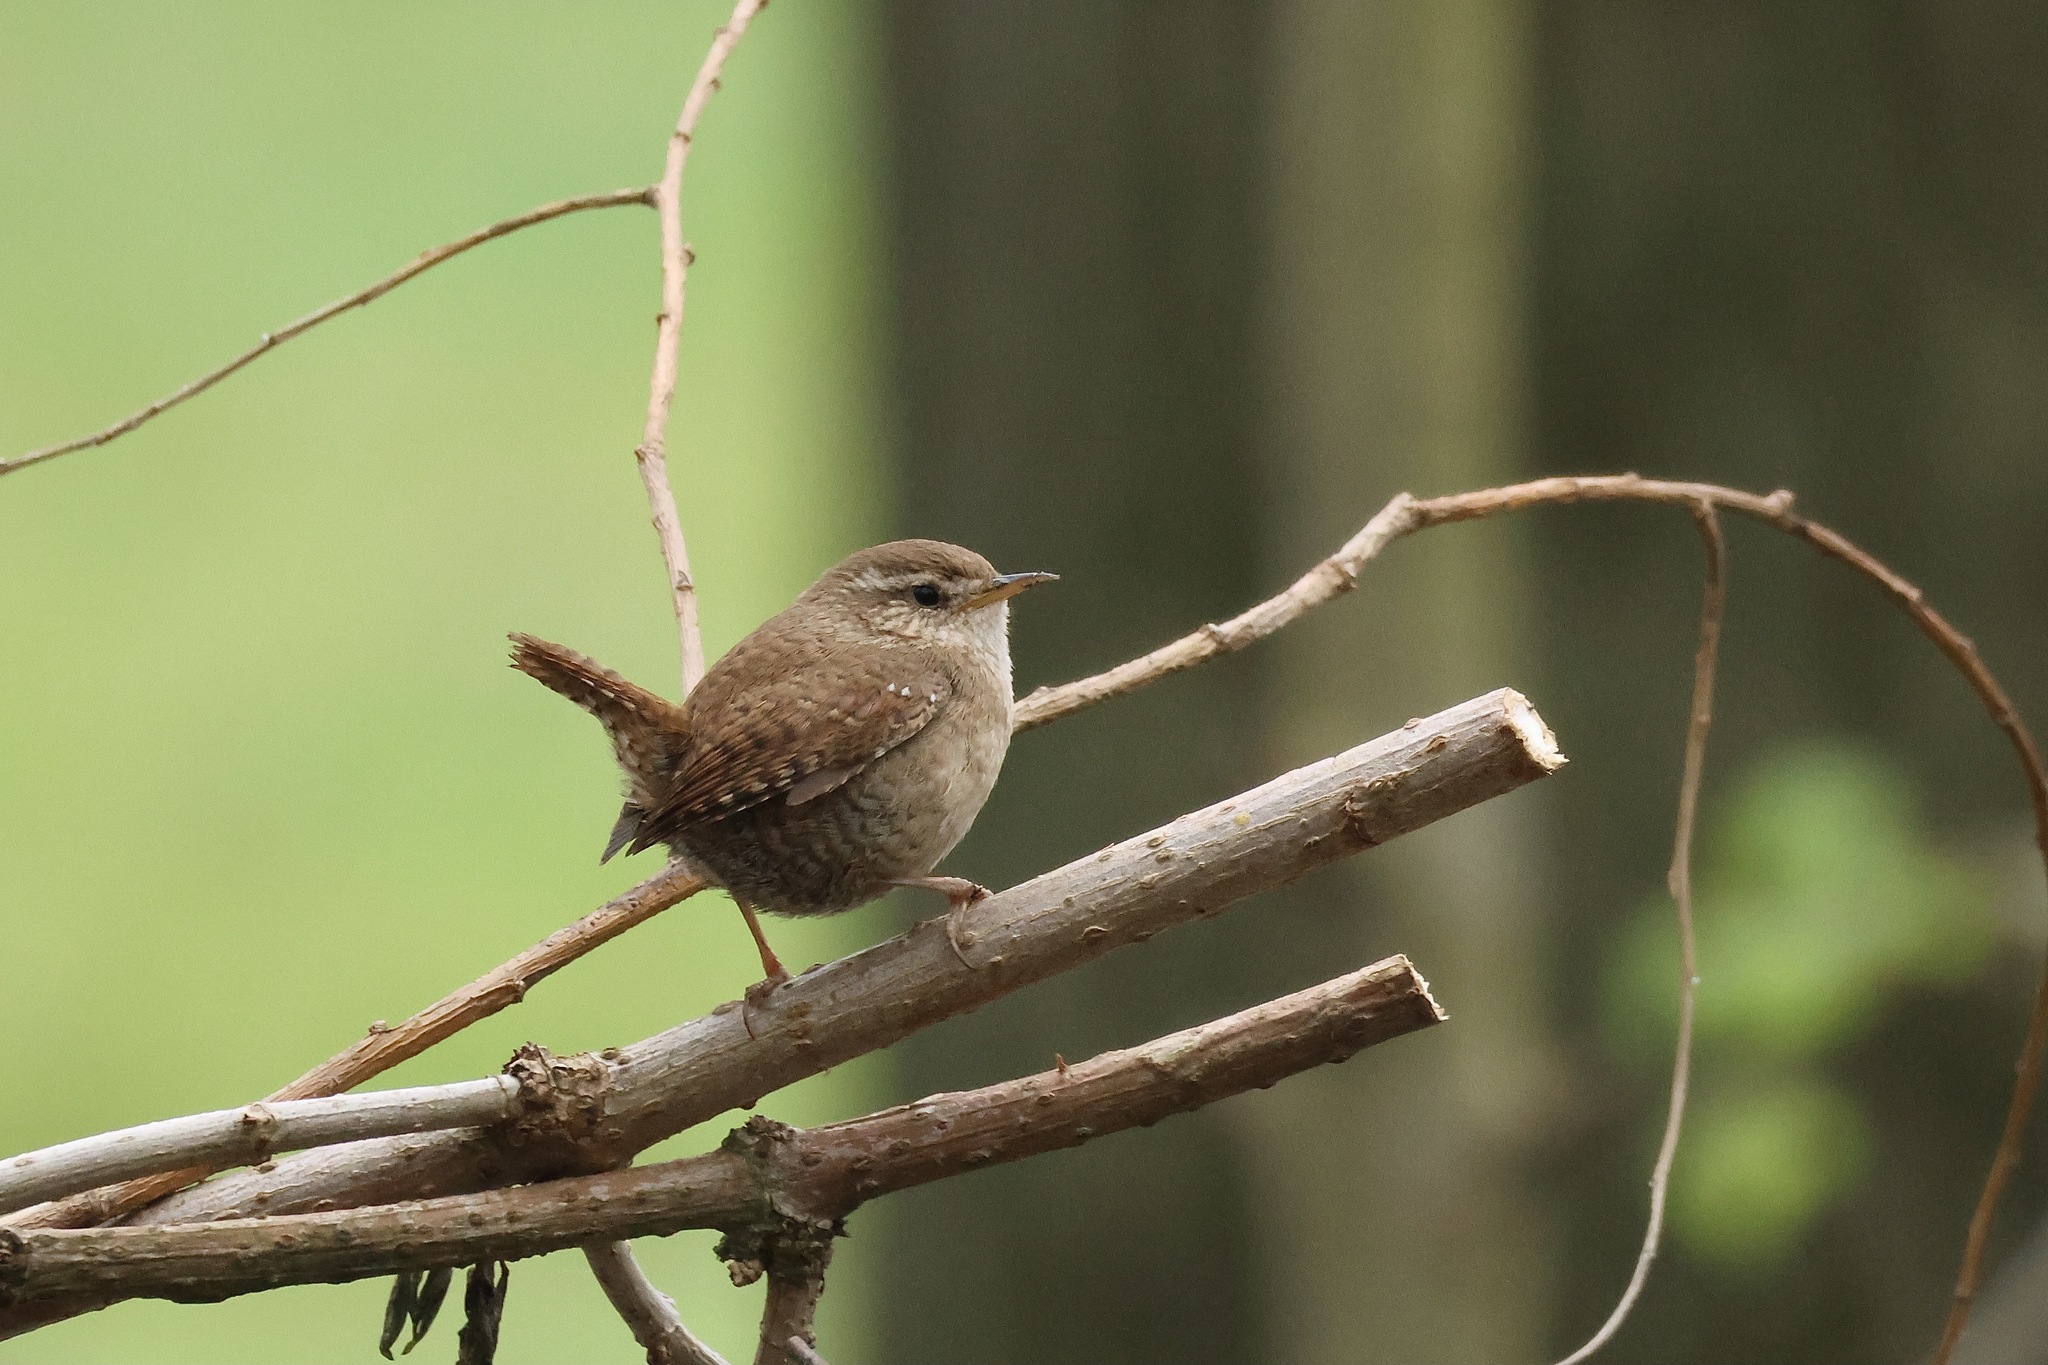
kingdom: Animalia
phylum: Chordata
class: Aves
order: Passeriformes
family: Troglodytidae
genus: Troglodytes
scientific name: Troglodytes troglodytes
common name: Eurasian wren
